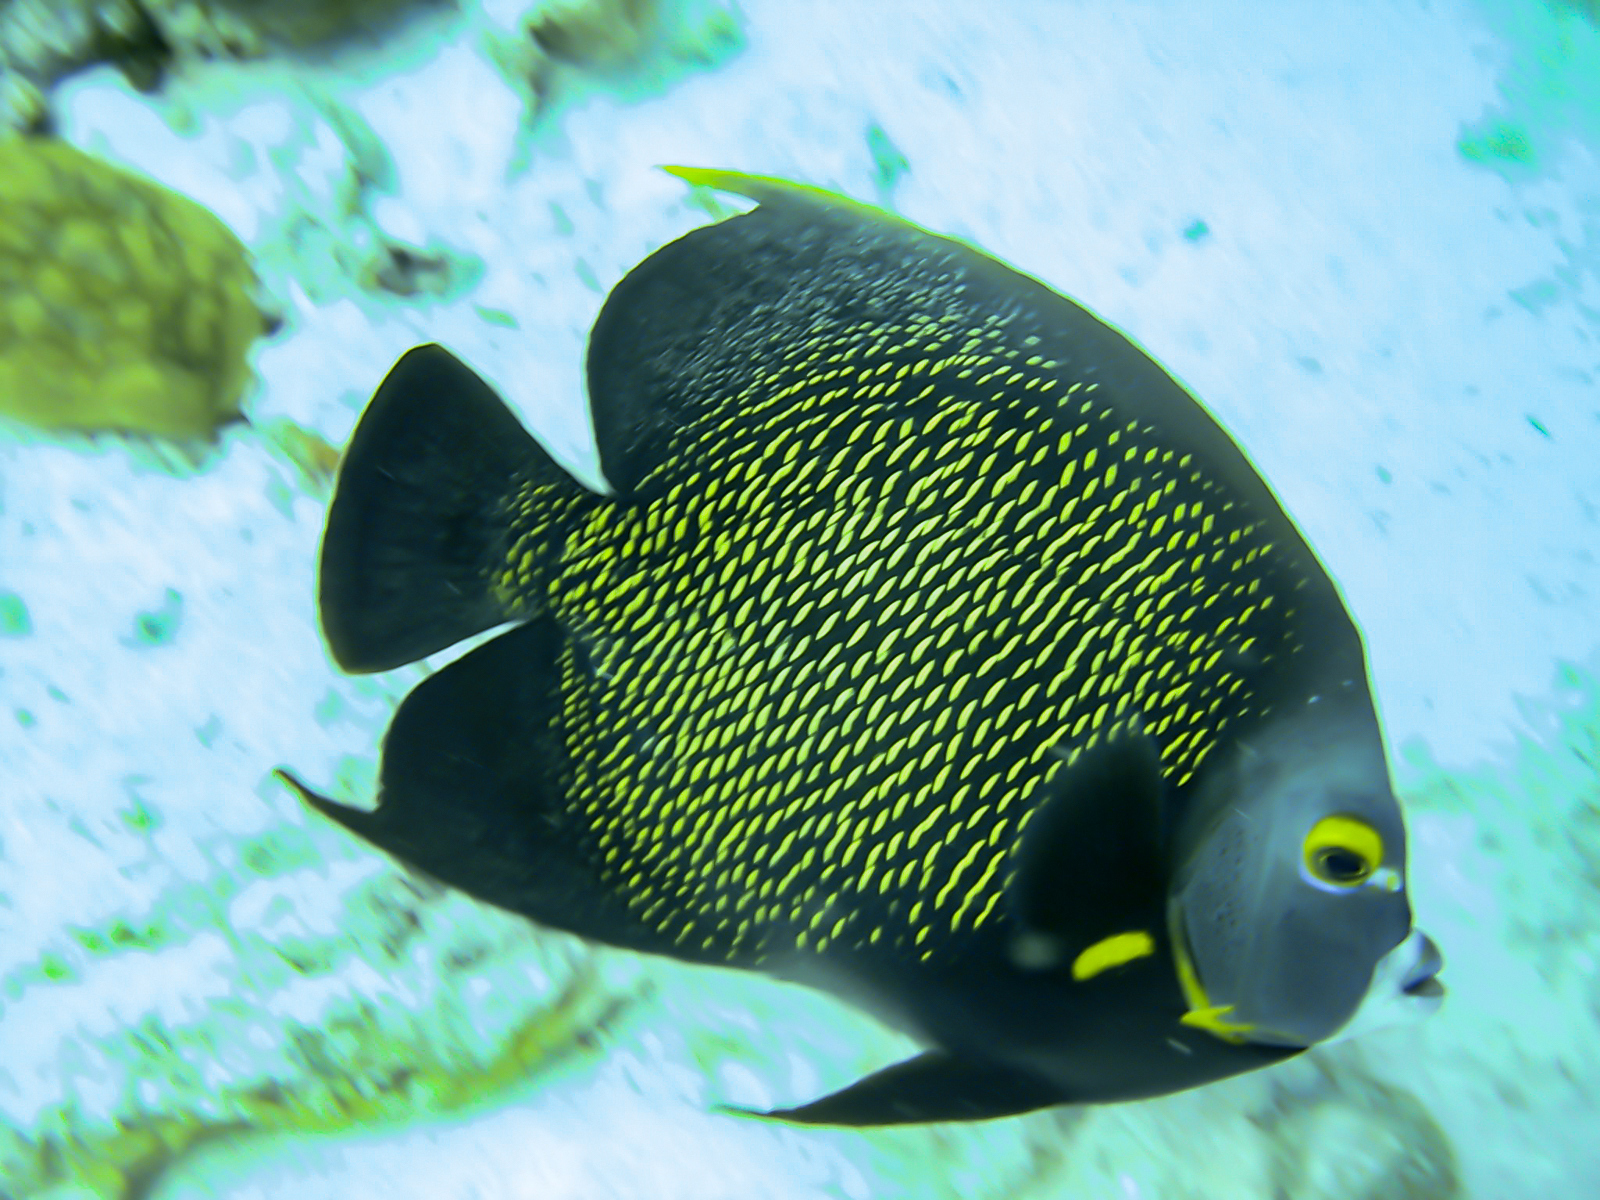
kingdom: Animalia
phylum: Chordata
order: Perciformes
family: Pomacanthidae
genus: Pomacanthus
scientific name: Pomacanthus paru
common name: French angelfish
